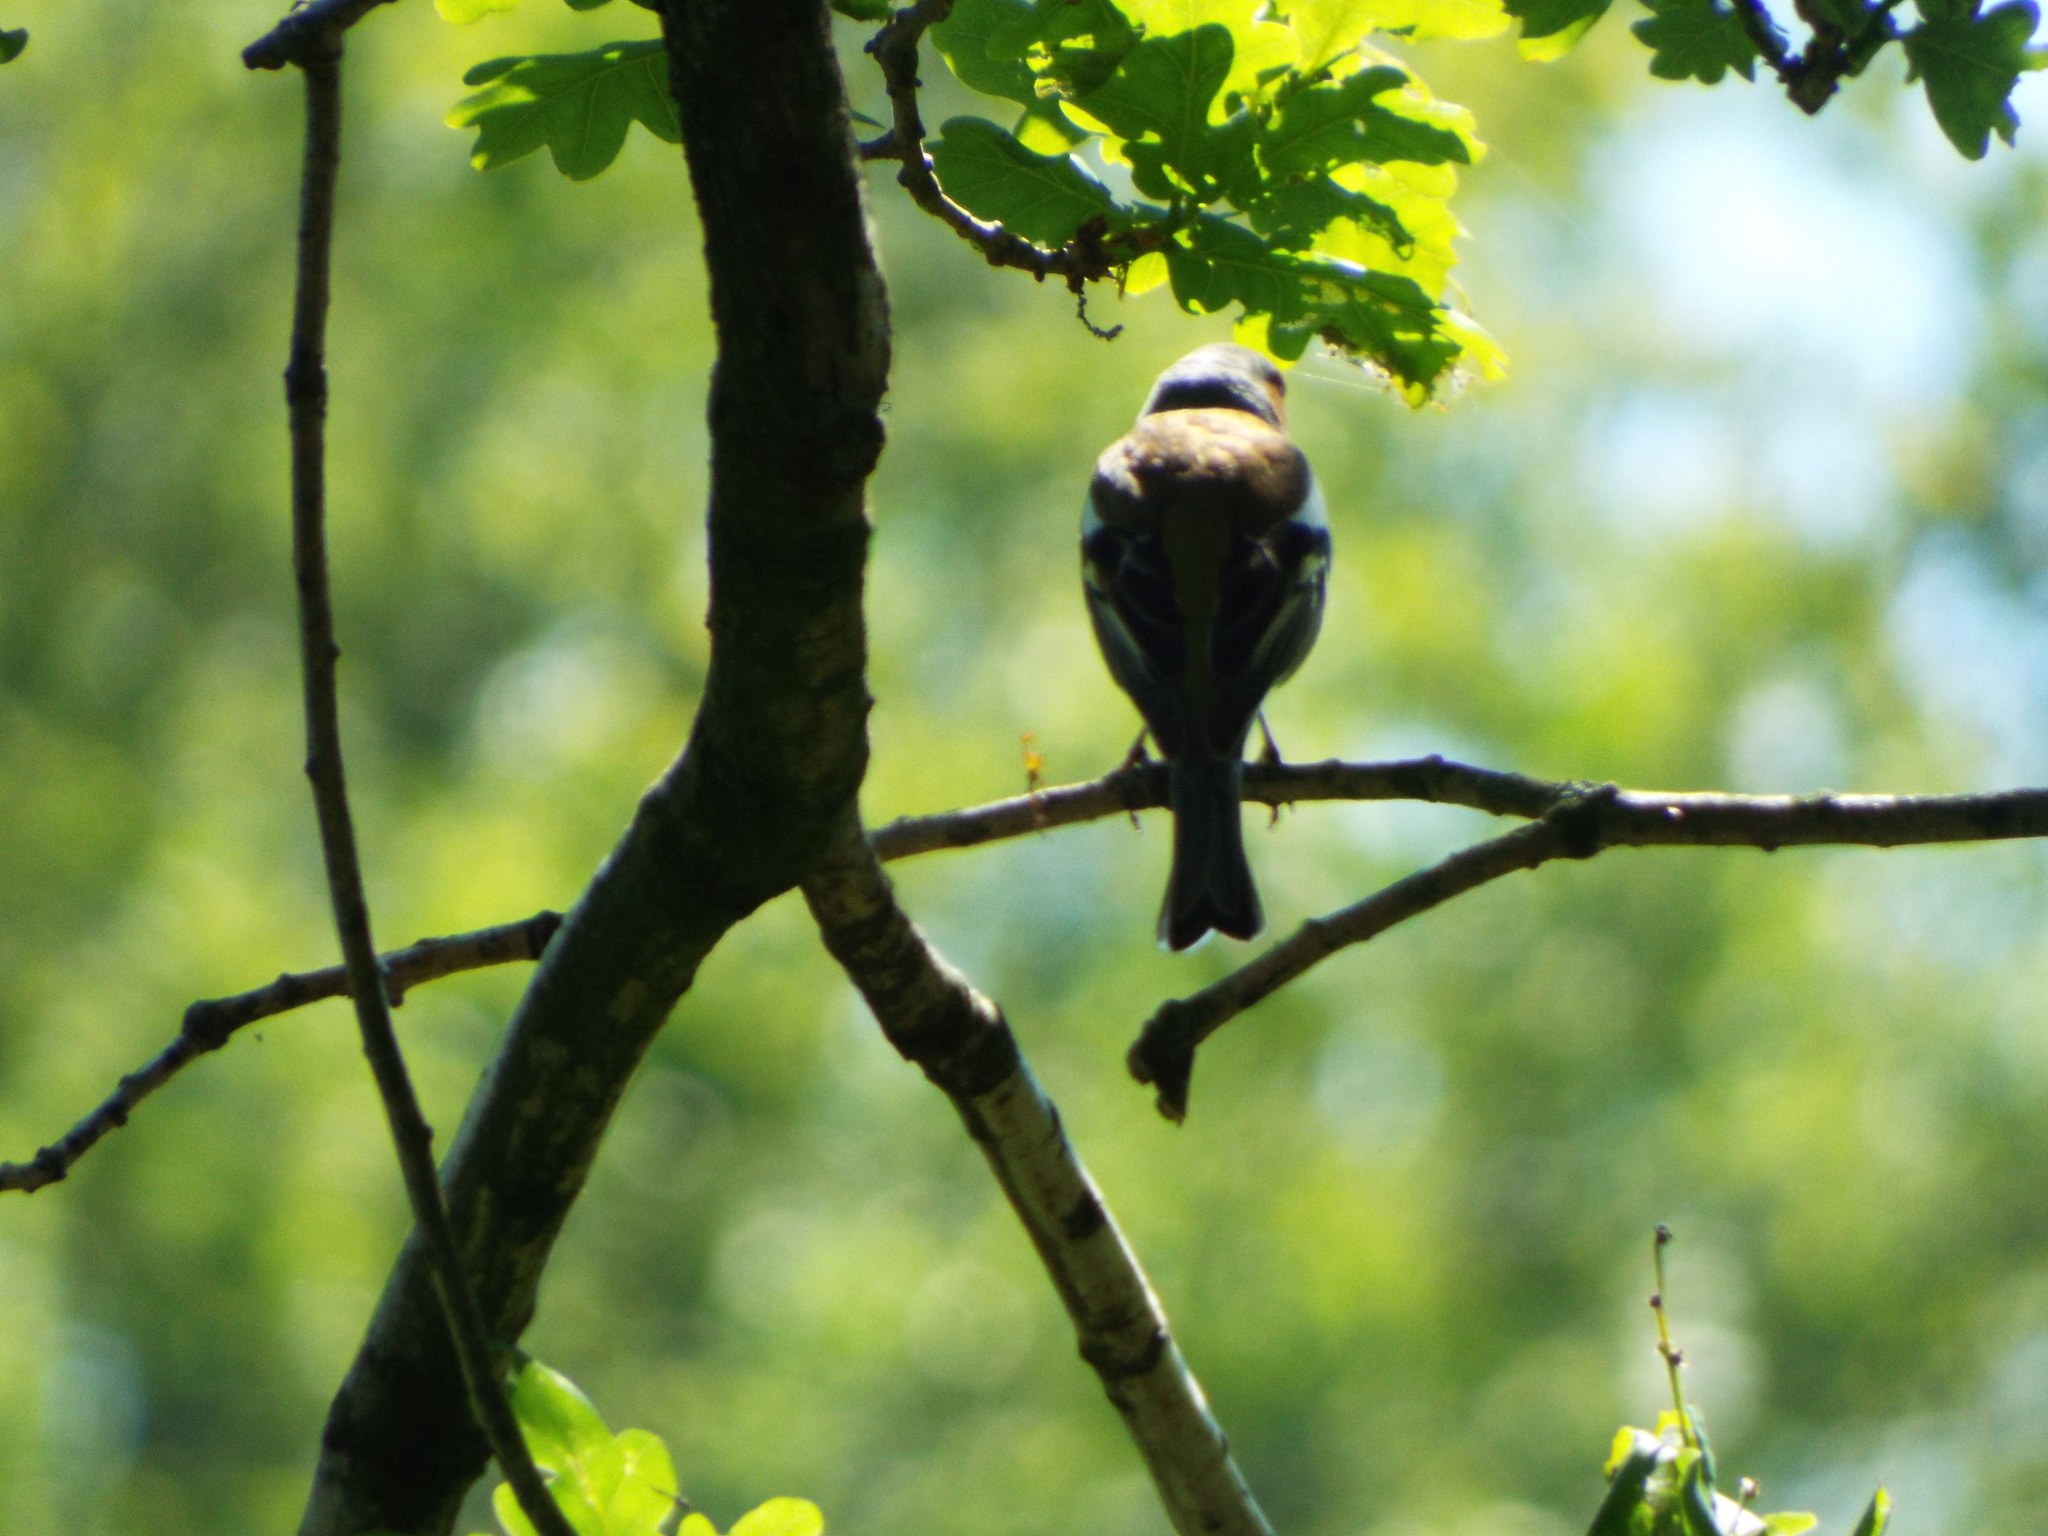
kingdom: Animalia
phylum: Chordata
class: Aves
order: Passeriformes
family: Fringillidae
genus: Fringilla
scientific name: Fringilla coelebs
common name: Common chaffinch
